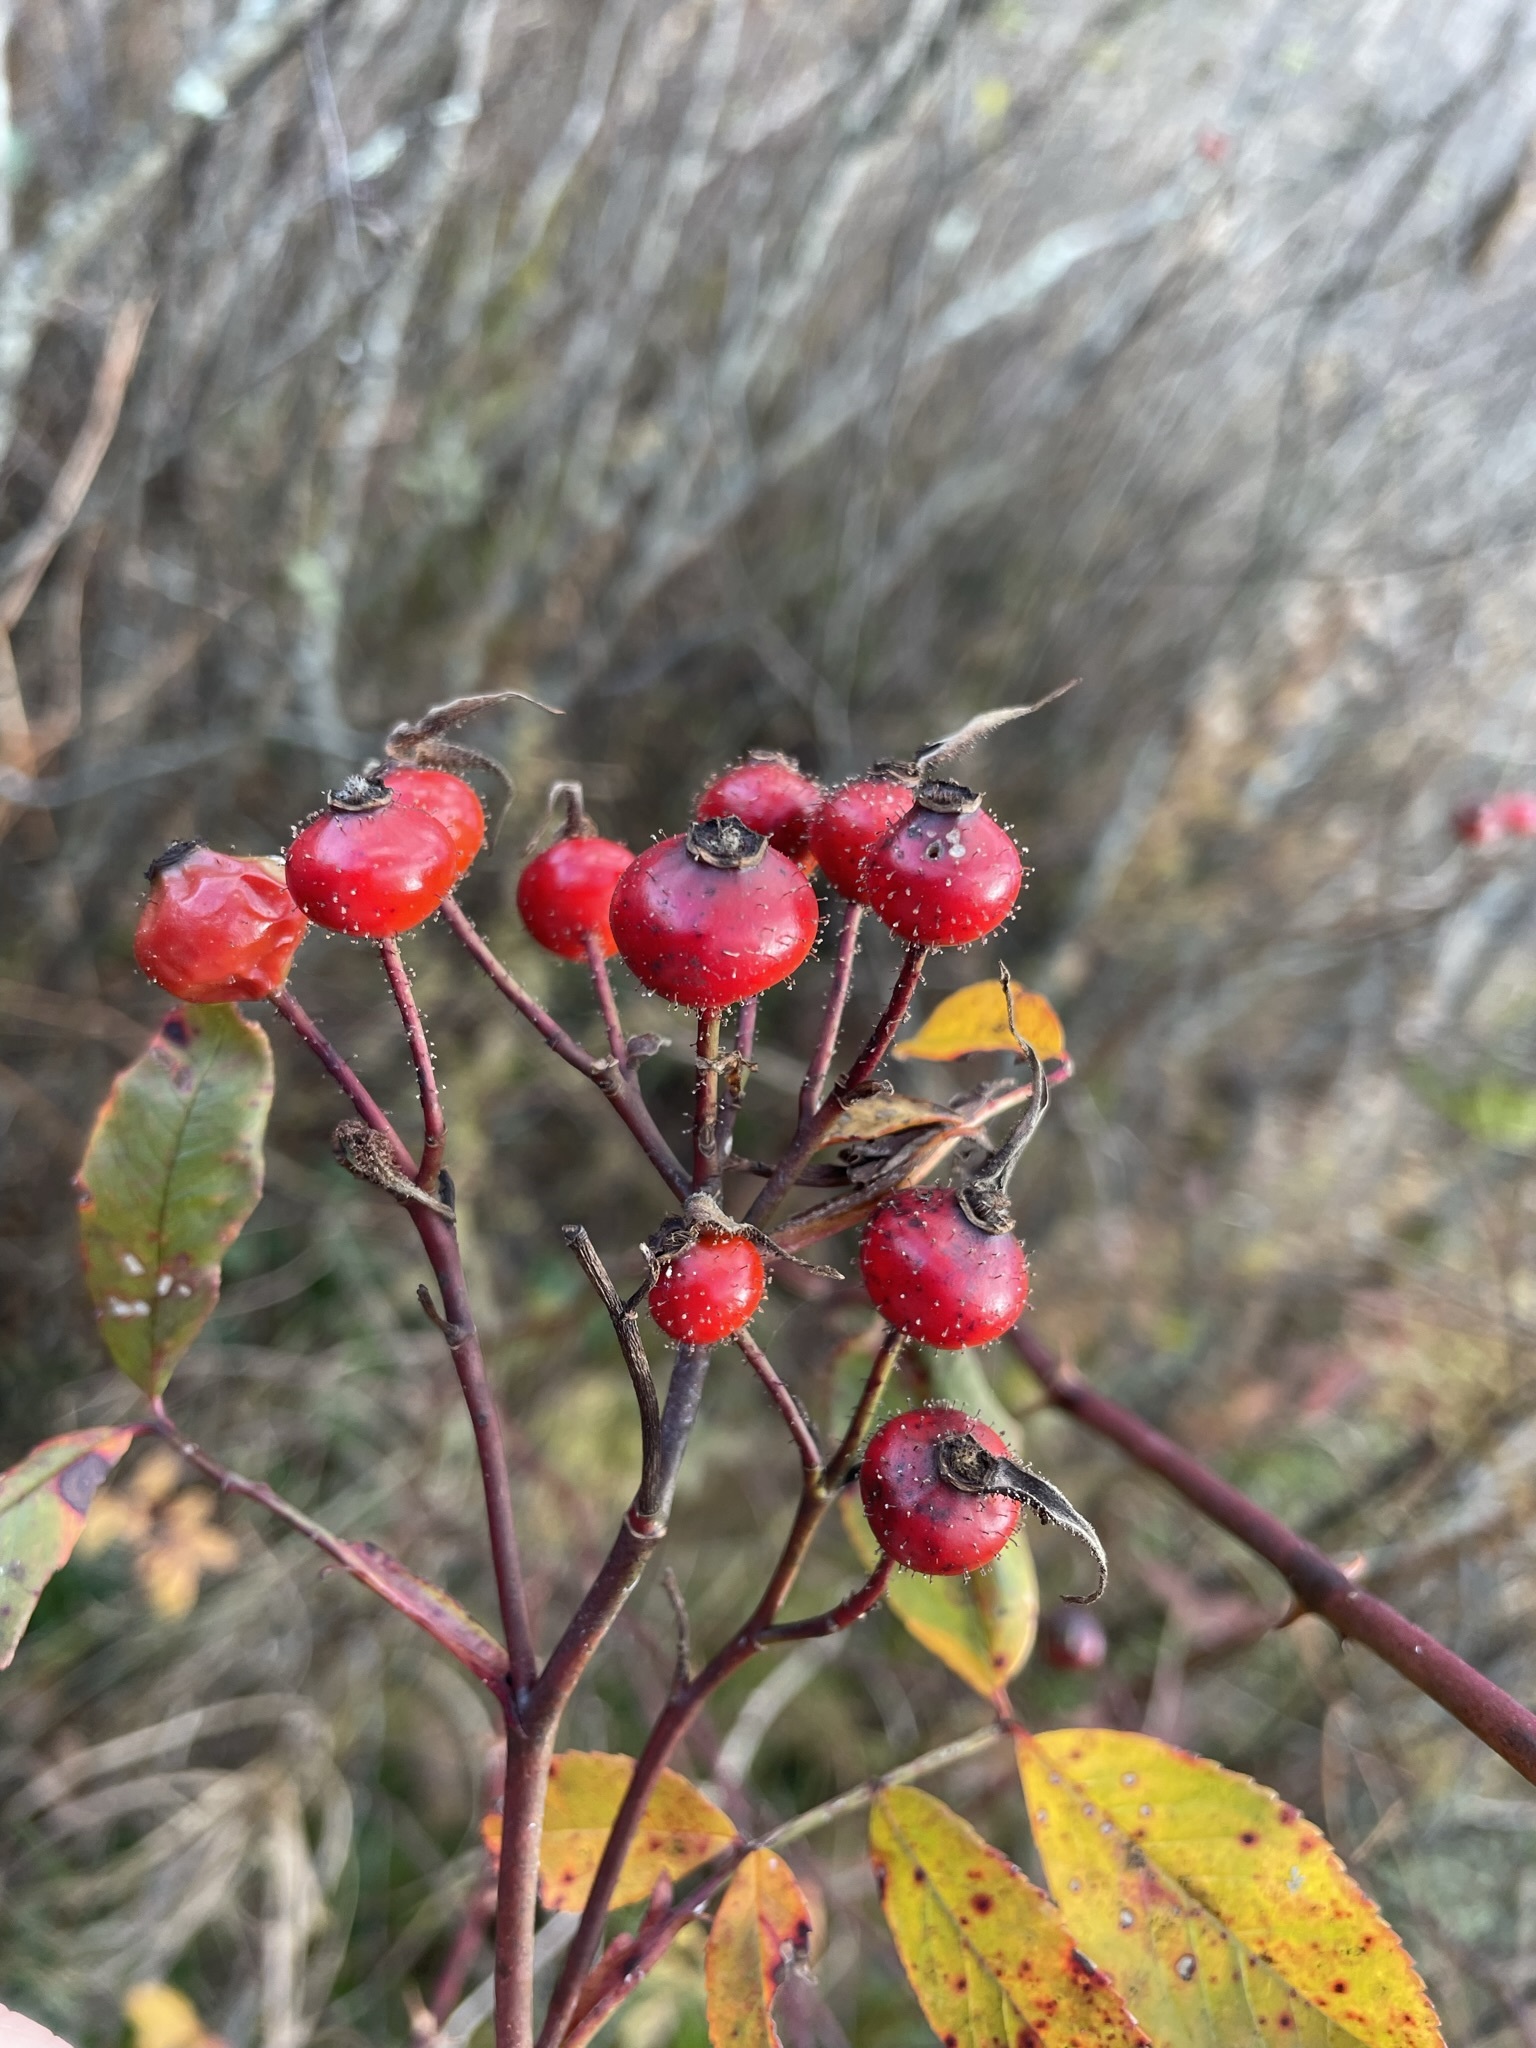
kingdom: Plantae
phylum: Tracheophyta
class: Magnoliopsida
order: Rosales
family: Rosaceae
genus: Rosa
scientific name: Rosa palustris
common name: Swamp rose
